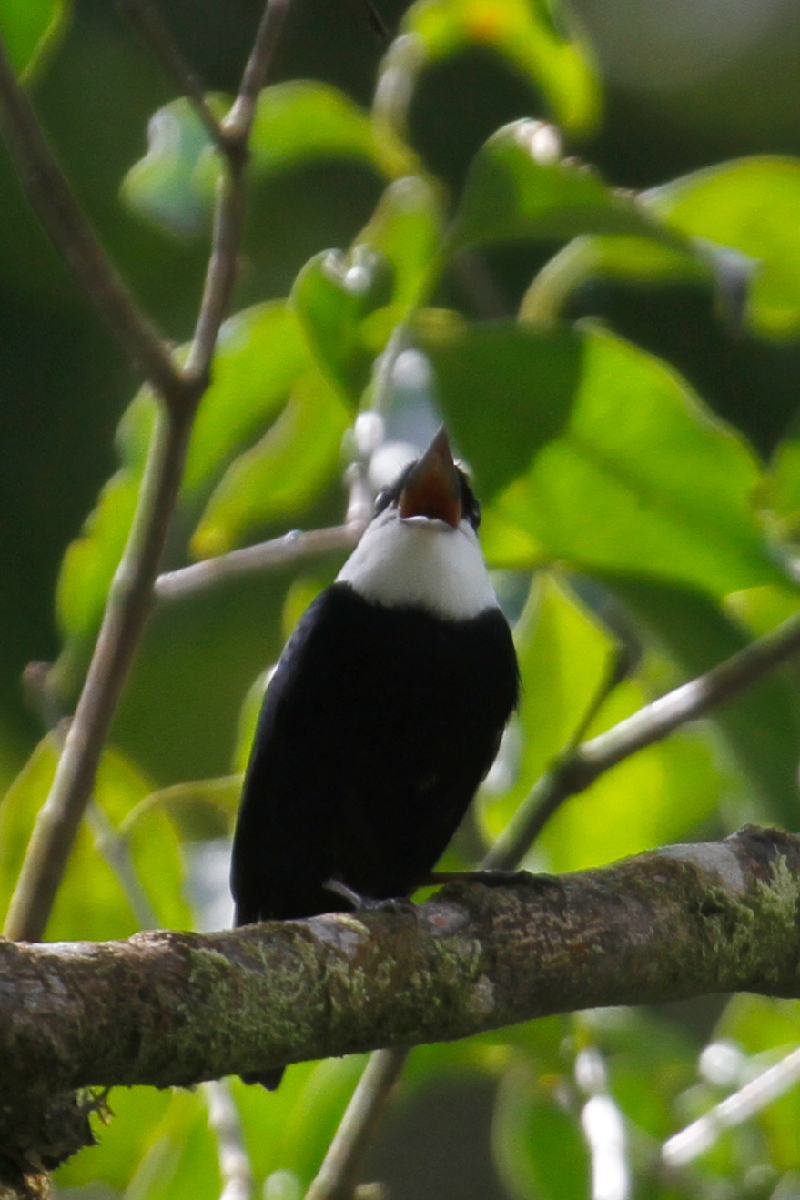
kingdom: Animalia
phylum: Chordata
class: Aves
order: Passeriformes
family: Pipridae
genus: Corapipo
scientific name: Corapipo altera
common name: White-ruffed manakin
